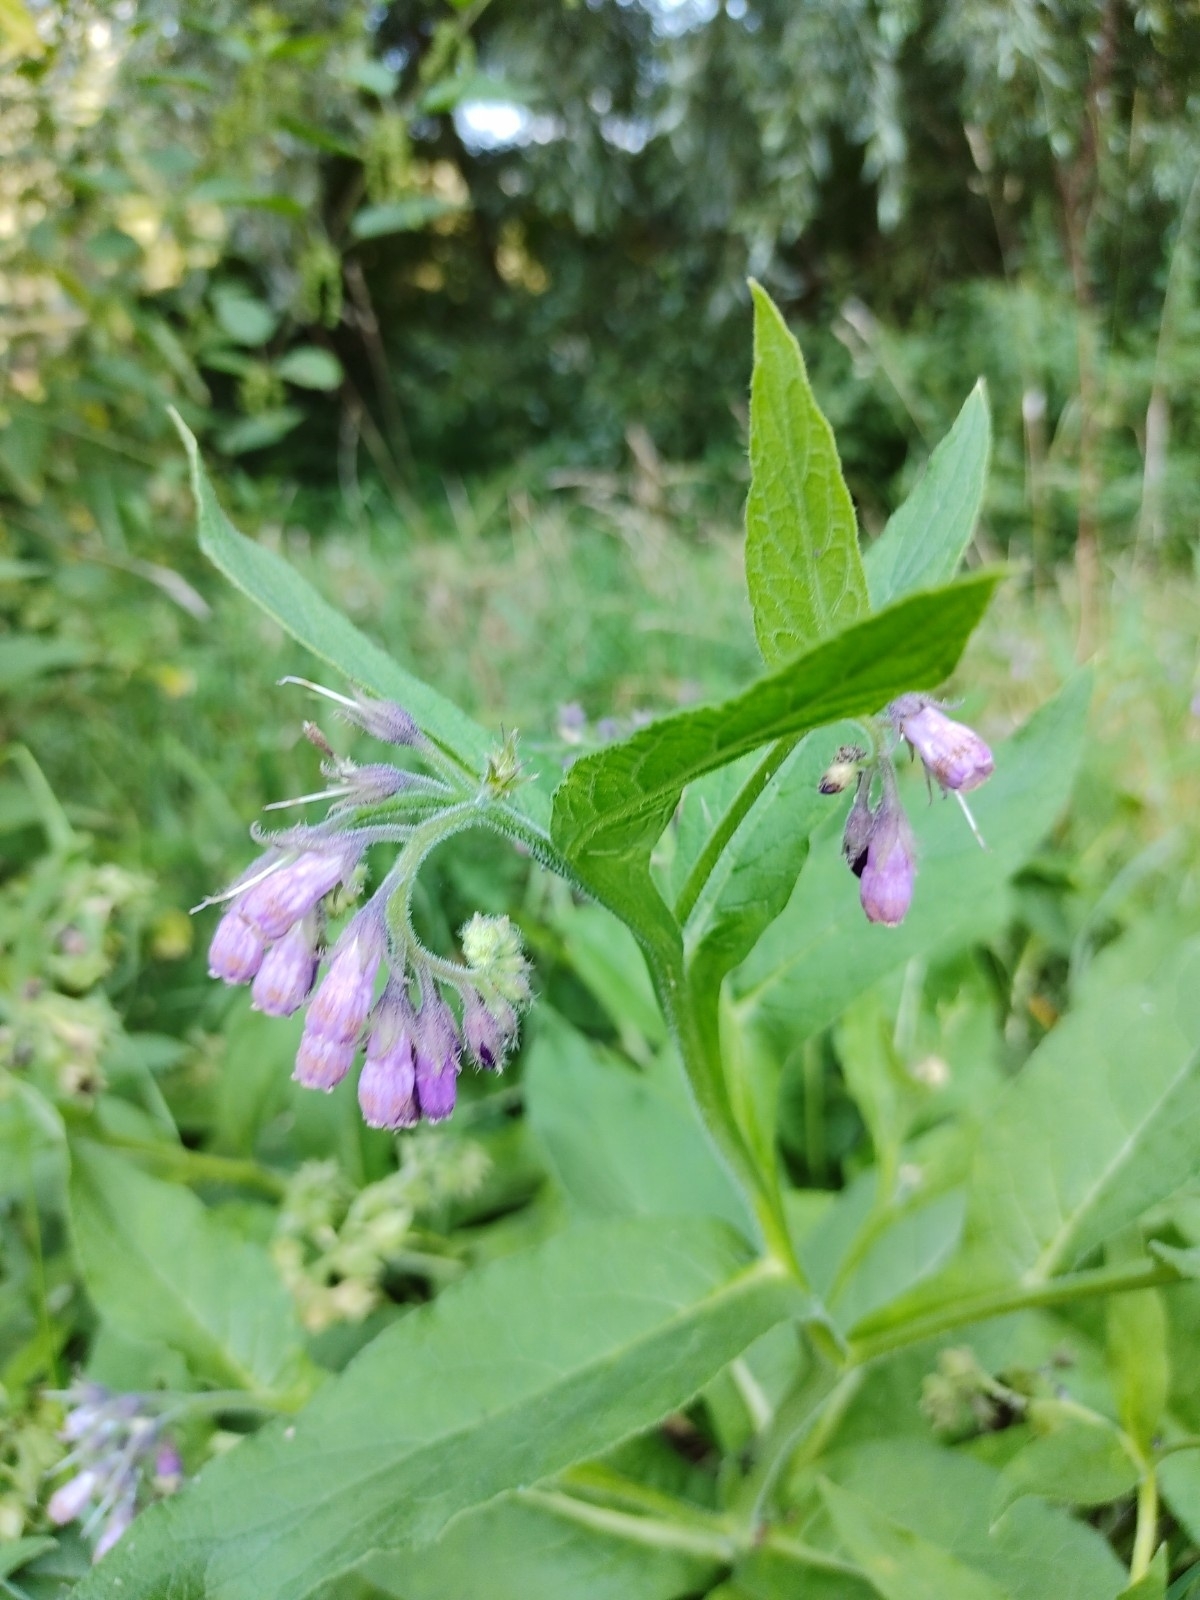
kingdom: Plantae
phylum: Tracheophyta
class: Magnoliopsida
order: Boraginales
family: Boraginaceae
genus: Symphytum
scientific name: Symphytum officinale
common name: Common comfrey
